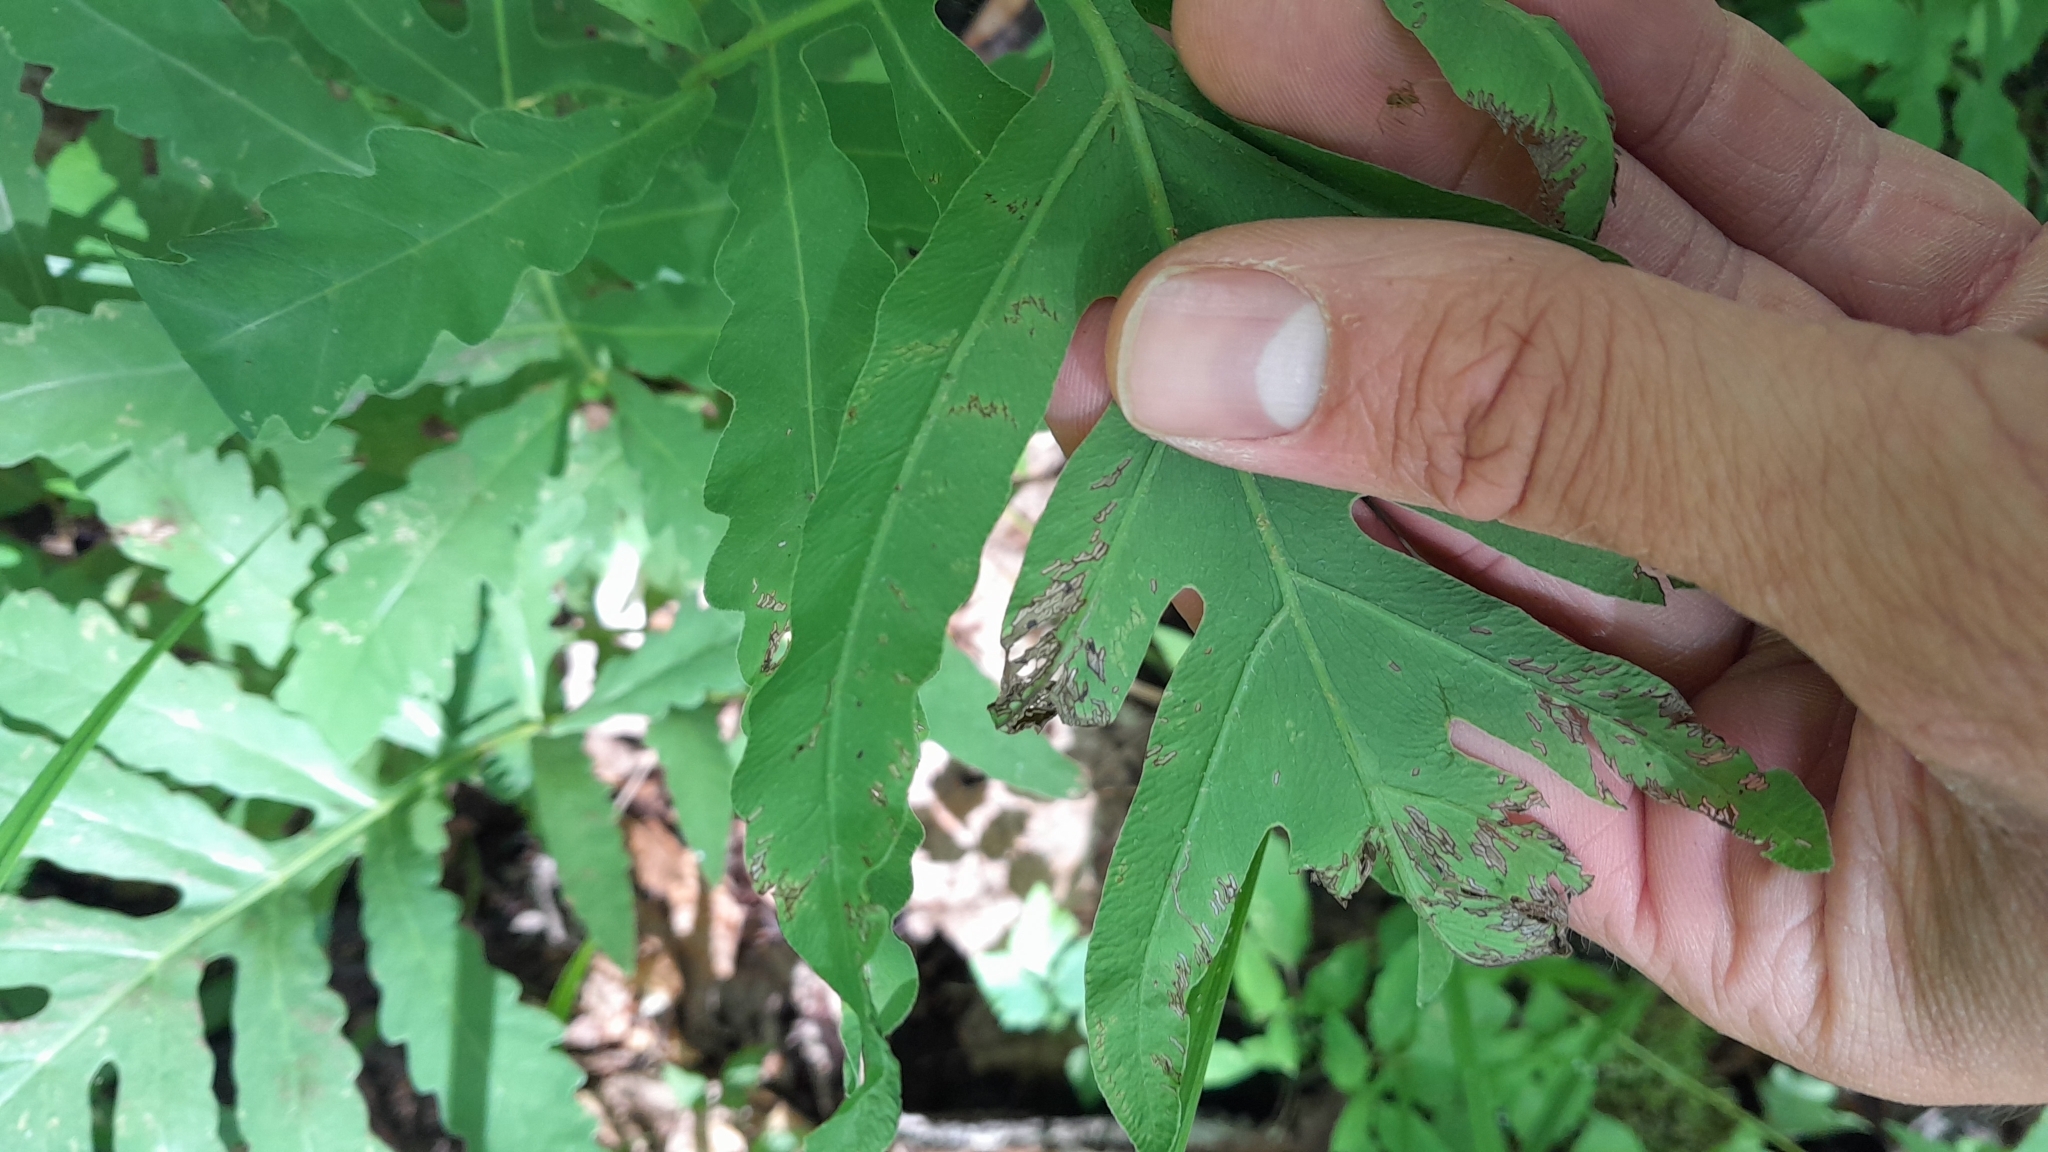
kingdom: Plantae
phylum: Tracheophyta
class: Polypodiopsida
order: Polypodiales
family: Onocleaceae
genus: Onoclea
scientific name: Onoclea sensibilis
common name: Sensitive fern
